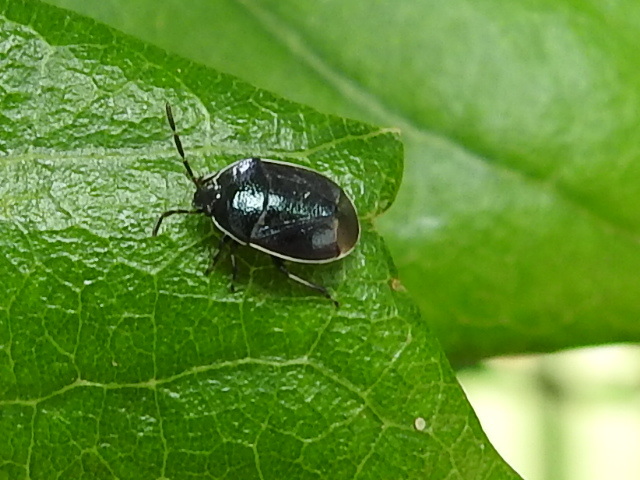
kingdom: Animalia
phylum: Arthropoda
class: Insecta
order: Hemiptera
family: Cydnidae
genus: Sehirus
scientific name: Sehirus cinctus
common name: White-margined burrower bug
